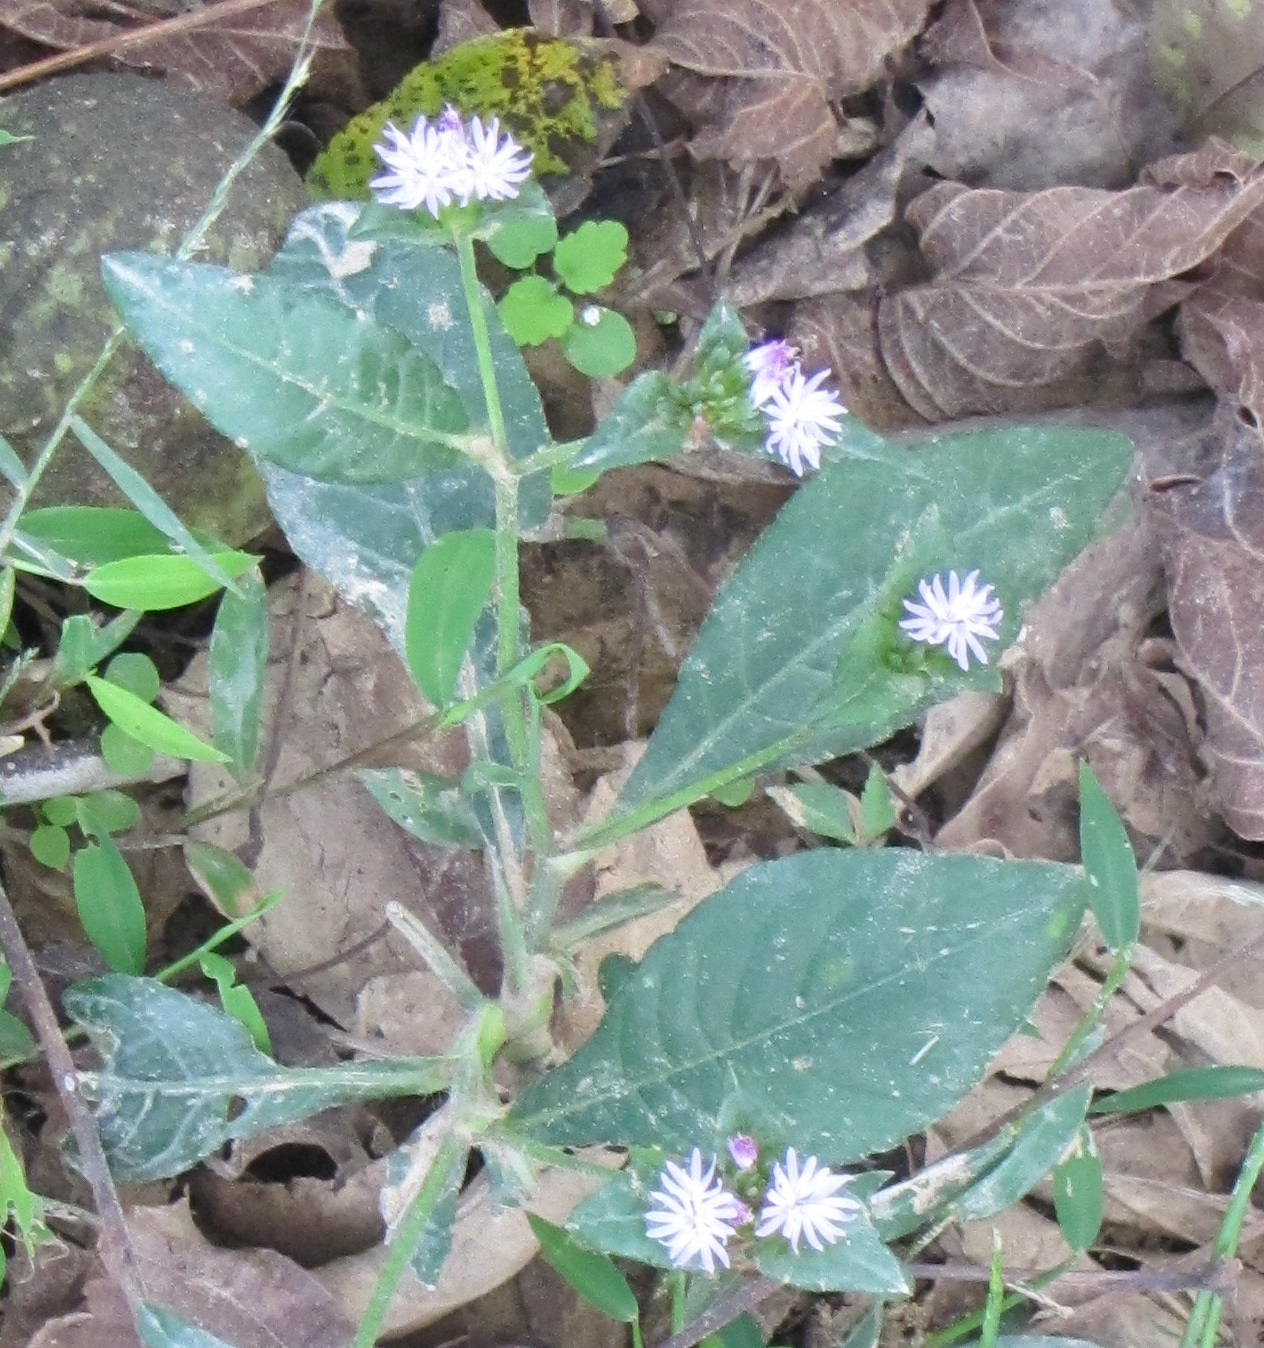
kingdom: Plantae
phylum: Tracheophyta
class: Magnoliopsida
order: Asterales
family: Asteraceae
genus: Elephantopus
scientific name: Elephantopus carolinianus
